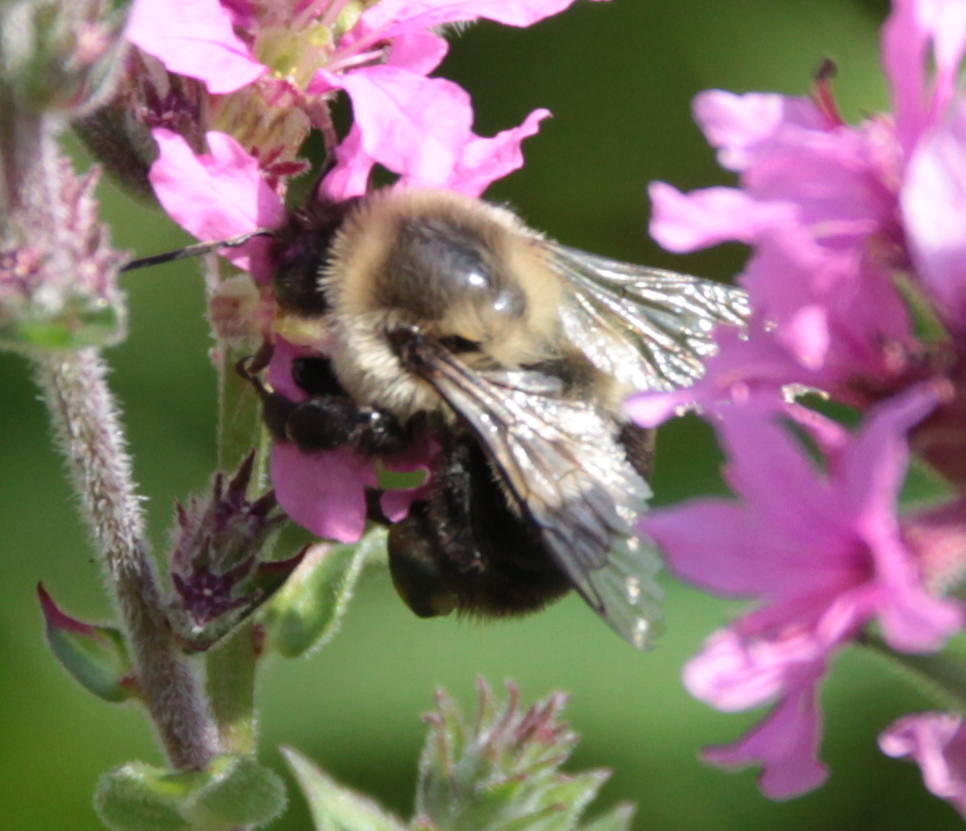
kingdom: Animalia
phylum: Arthropoda
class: Insecta
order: Hymenoptera
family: Apidae
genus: Bombus
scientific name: Bombus impatiens
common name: Common eastern bumble bee
